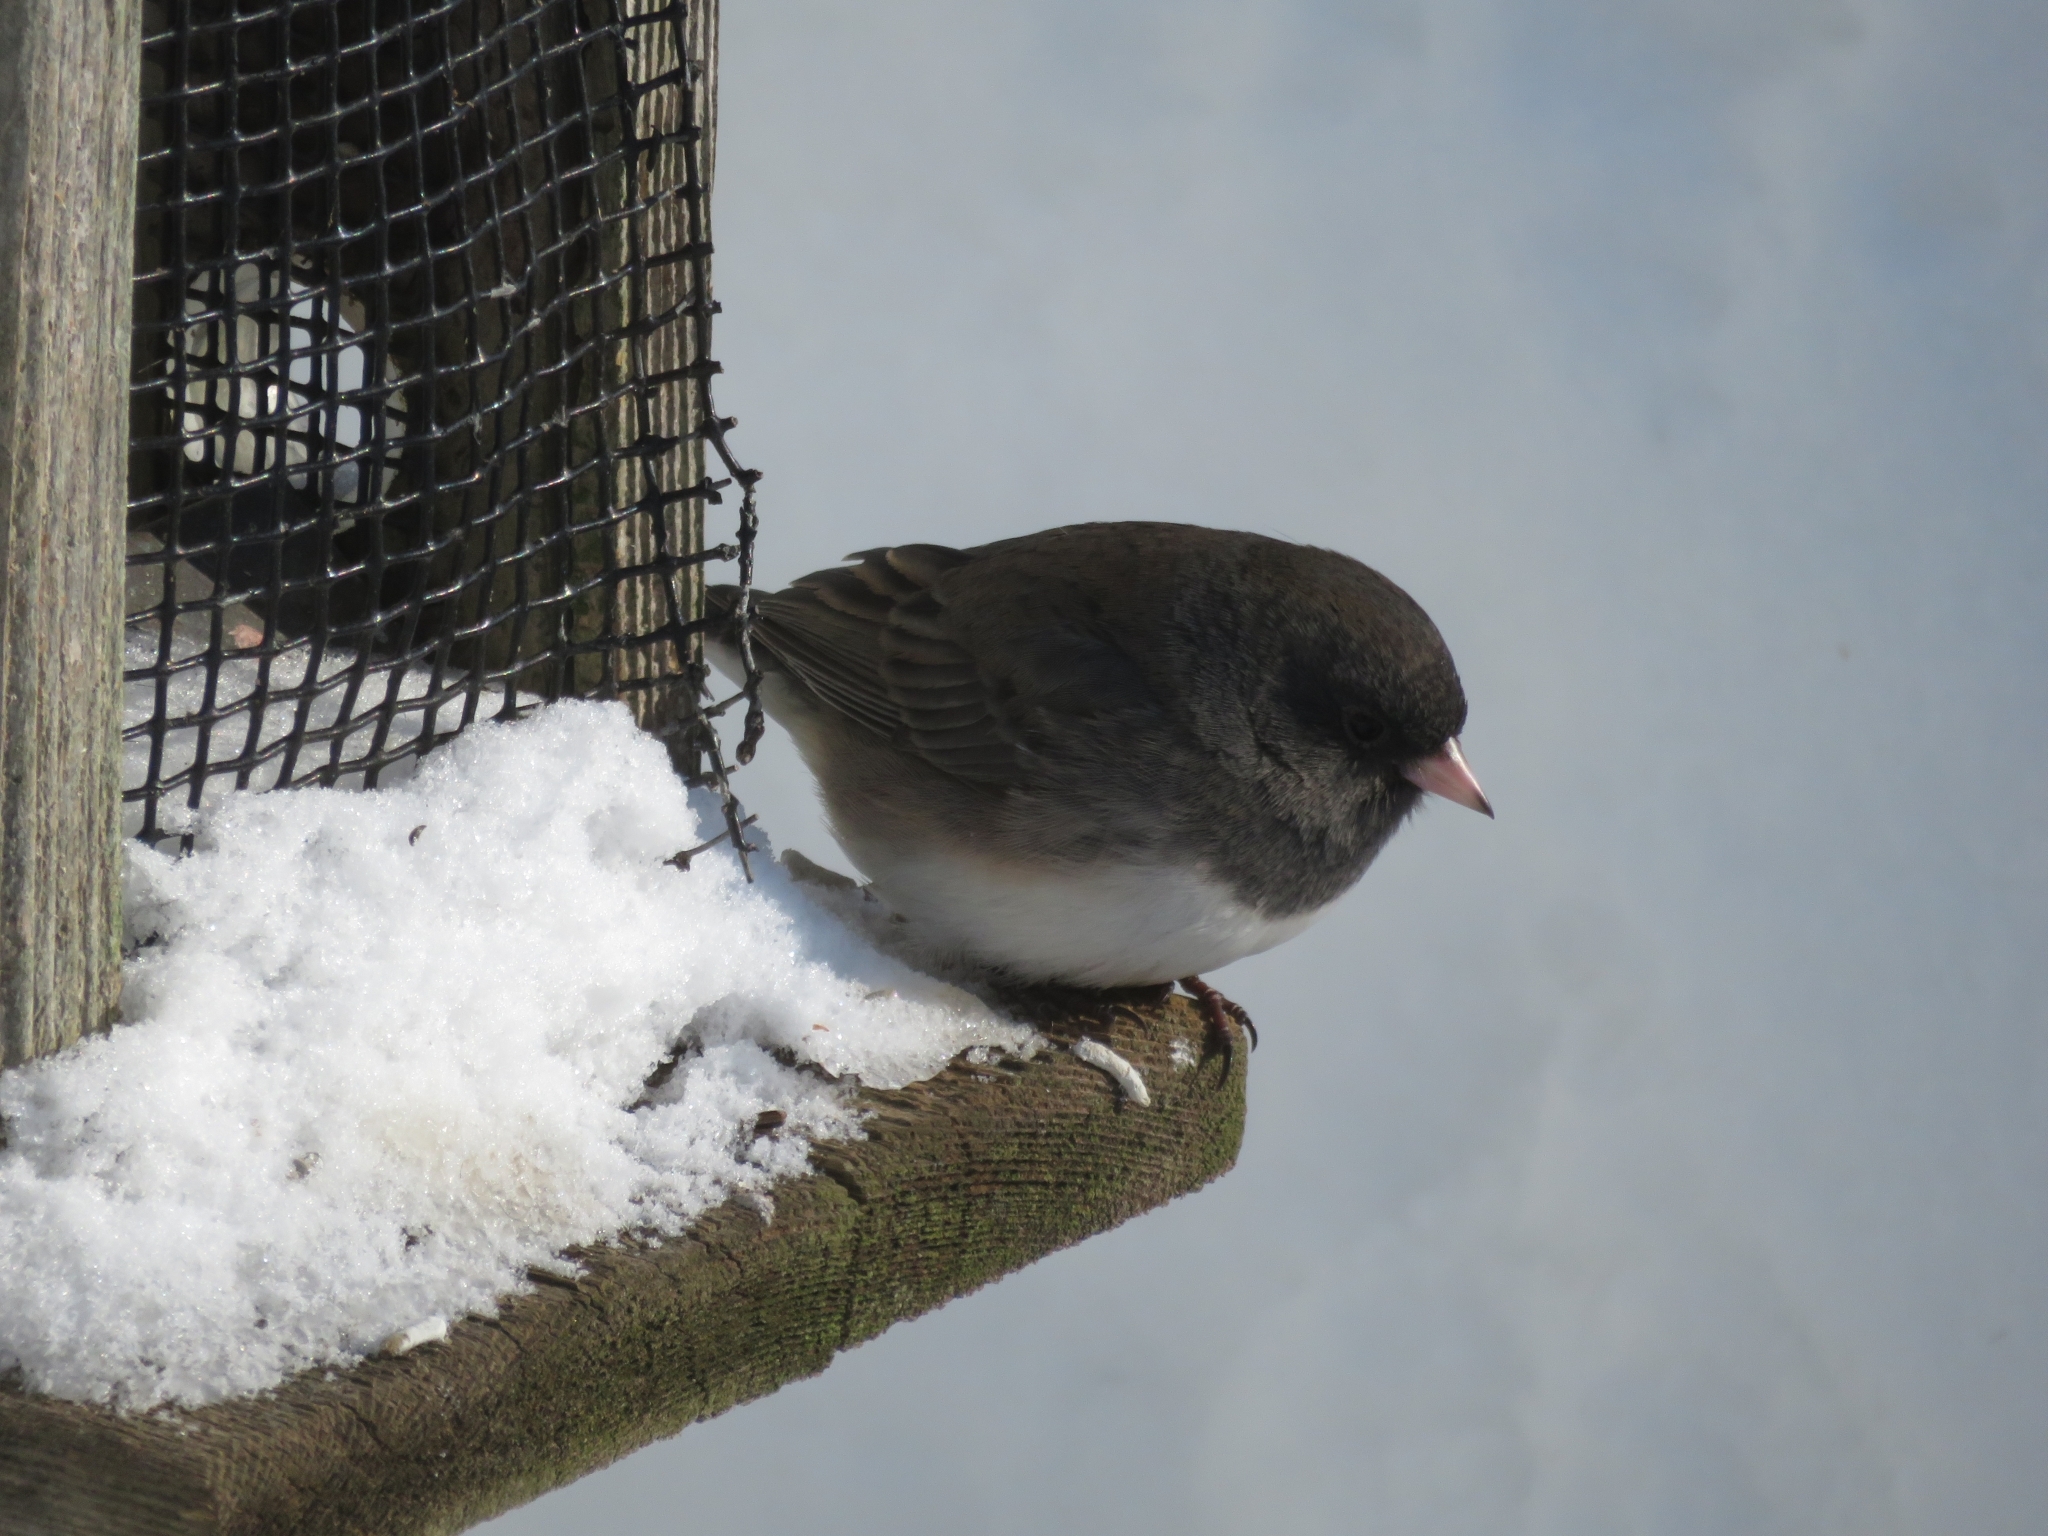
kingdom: Animalia
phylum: Chordata
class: Aves
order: Passeriformes
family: Passerellidae
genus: Junco
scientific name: Junco hyemalis
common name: Dark-eyed junco
